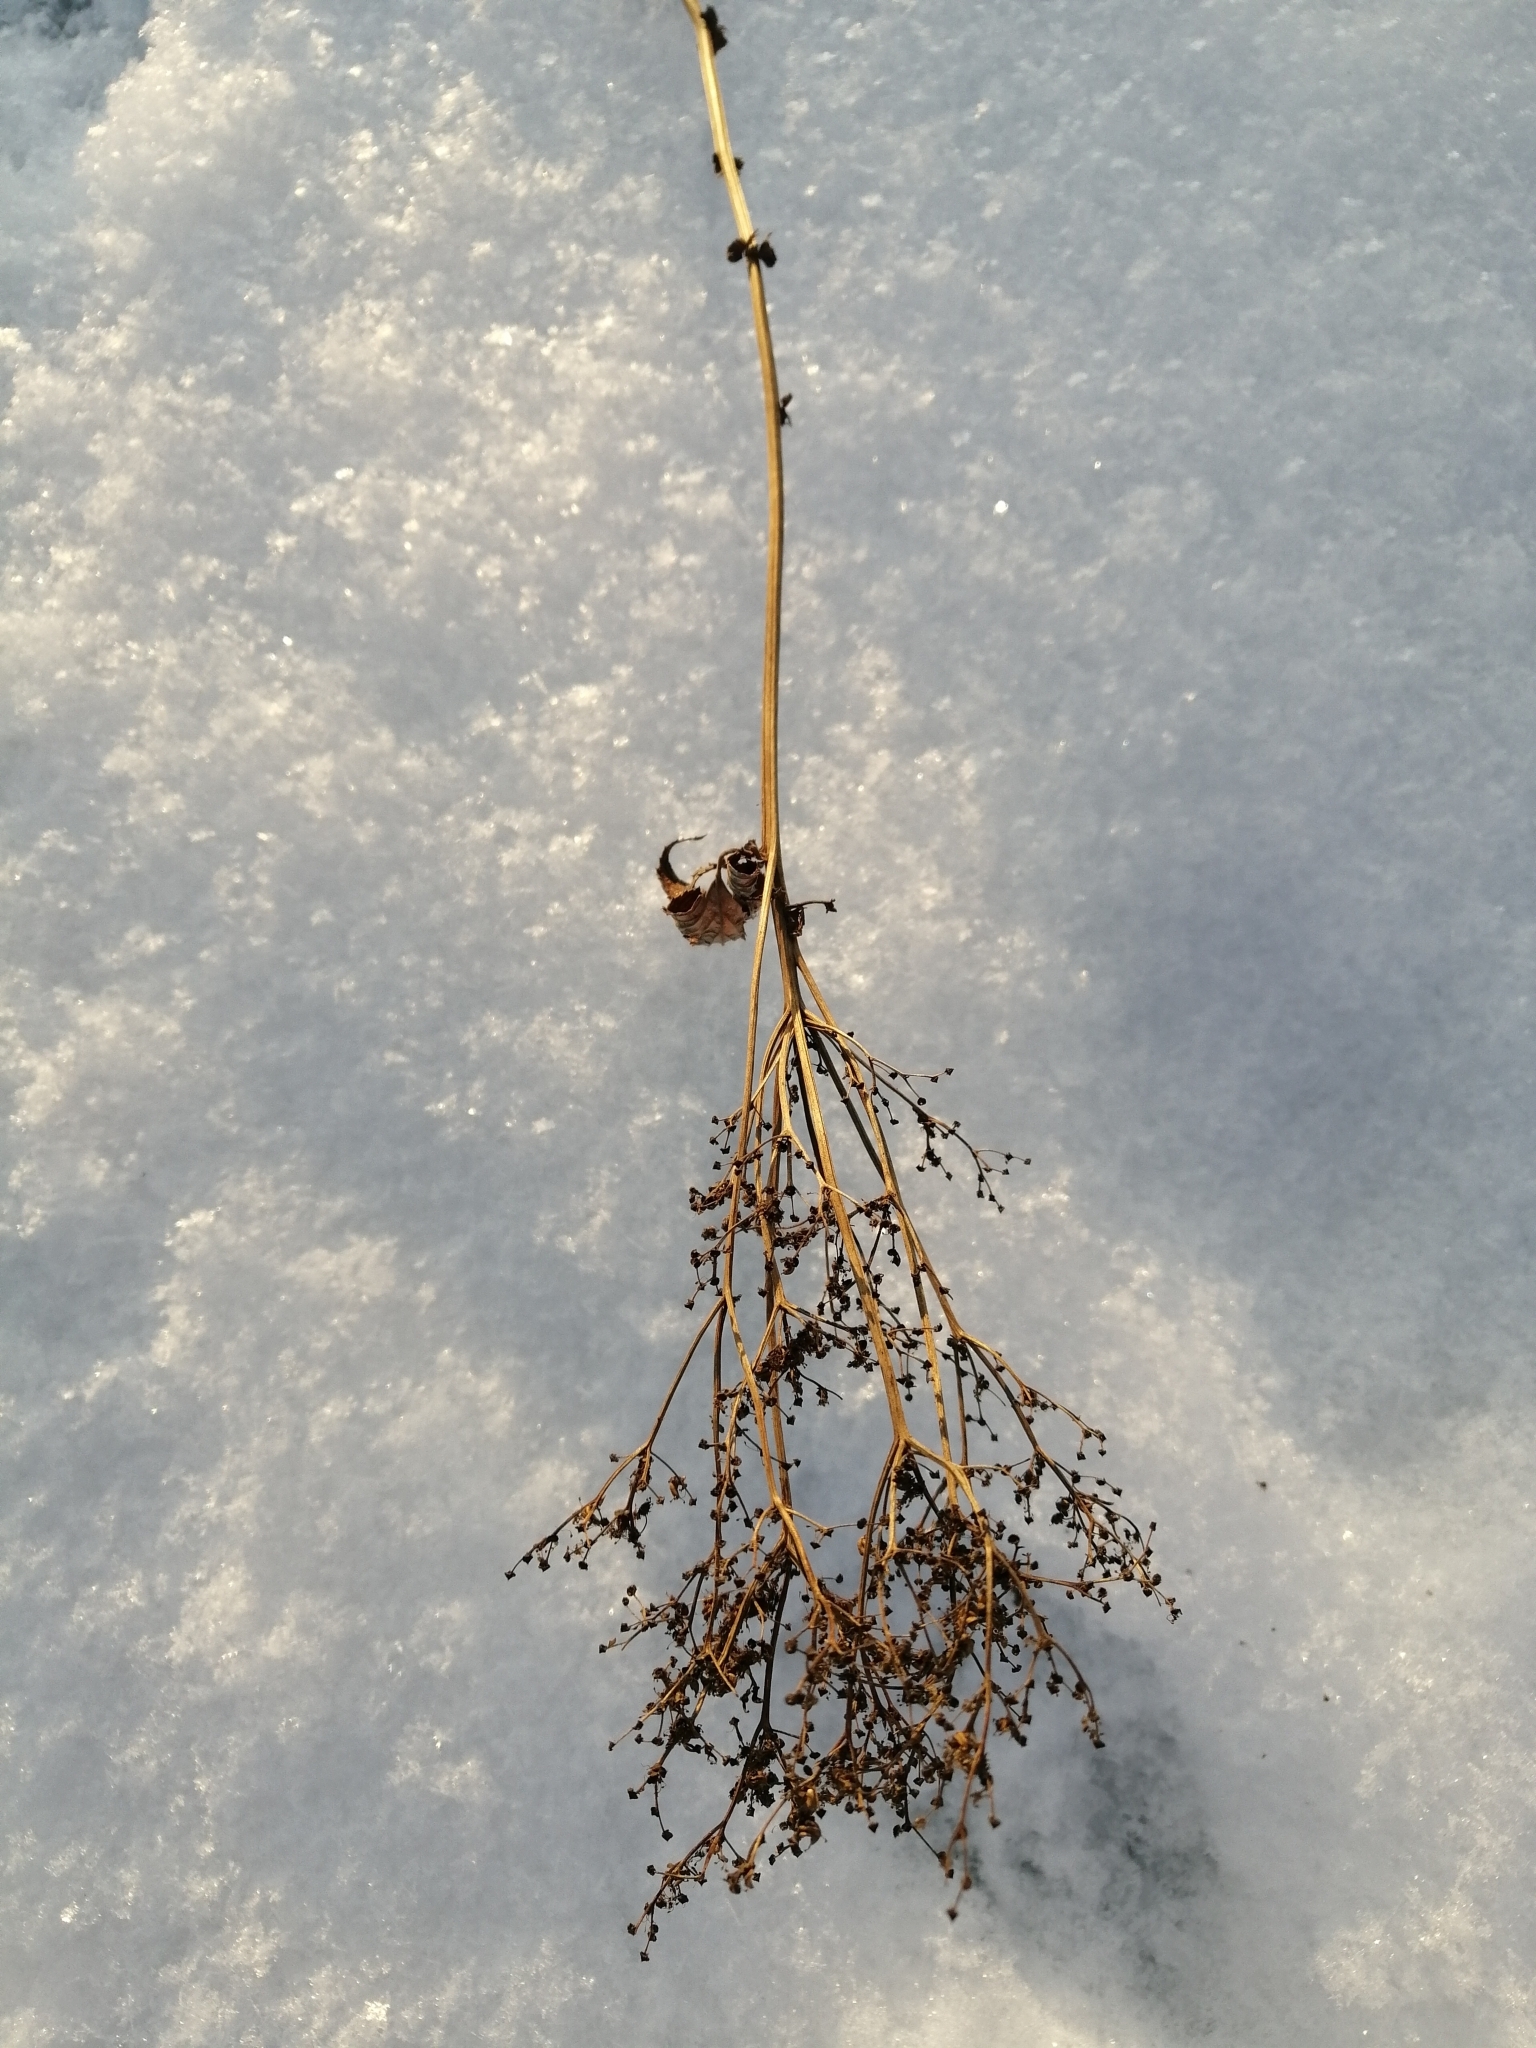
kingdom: Plantae
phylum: Tracheophyta
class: Magnoliopsida
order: Rosales
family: Rosaceae
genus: Filipendula
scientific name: Filipendula ulmaria
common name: Meadowsweet
